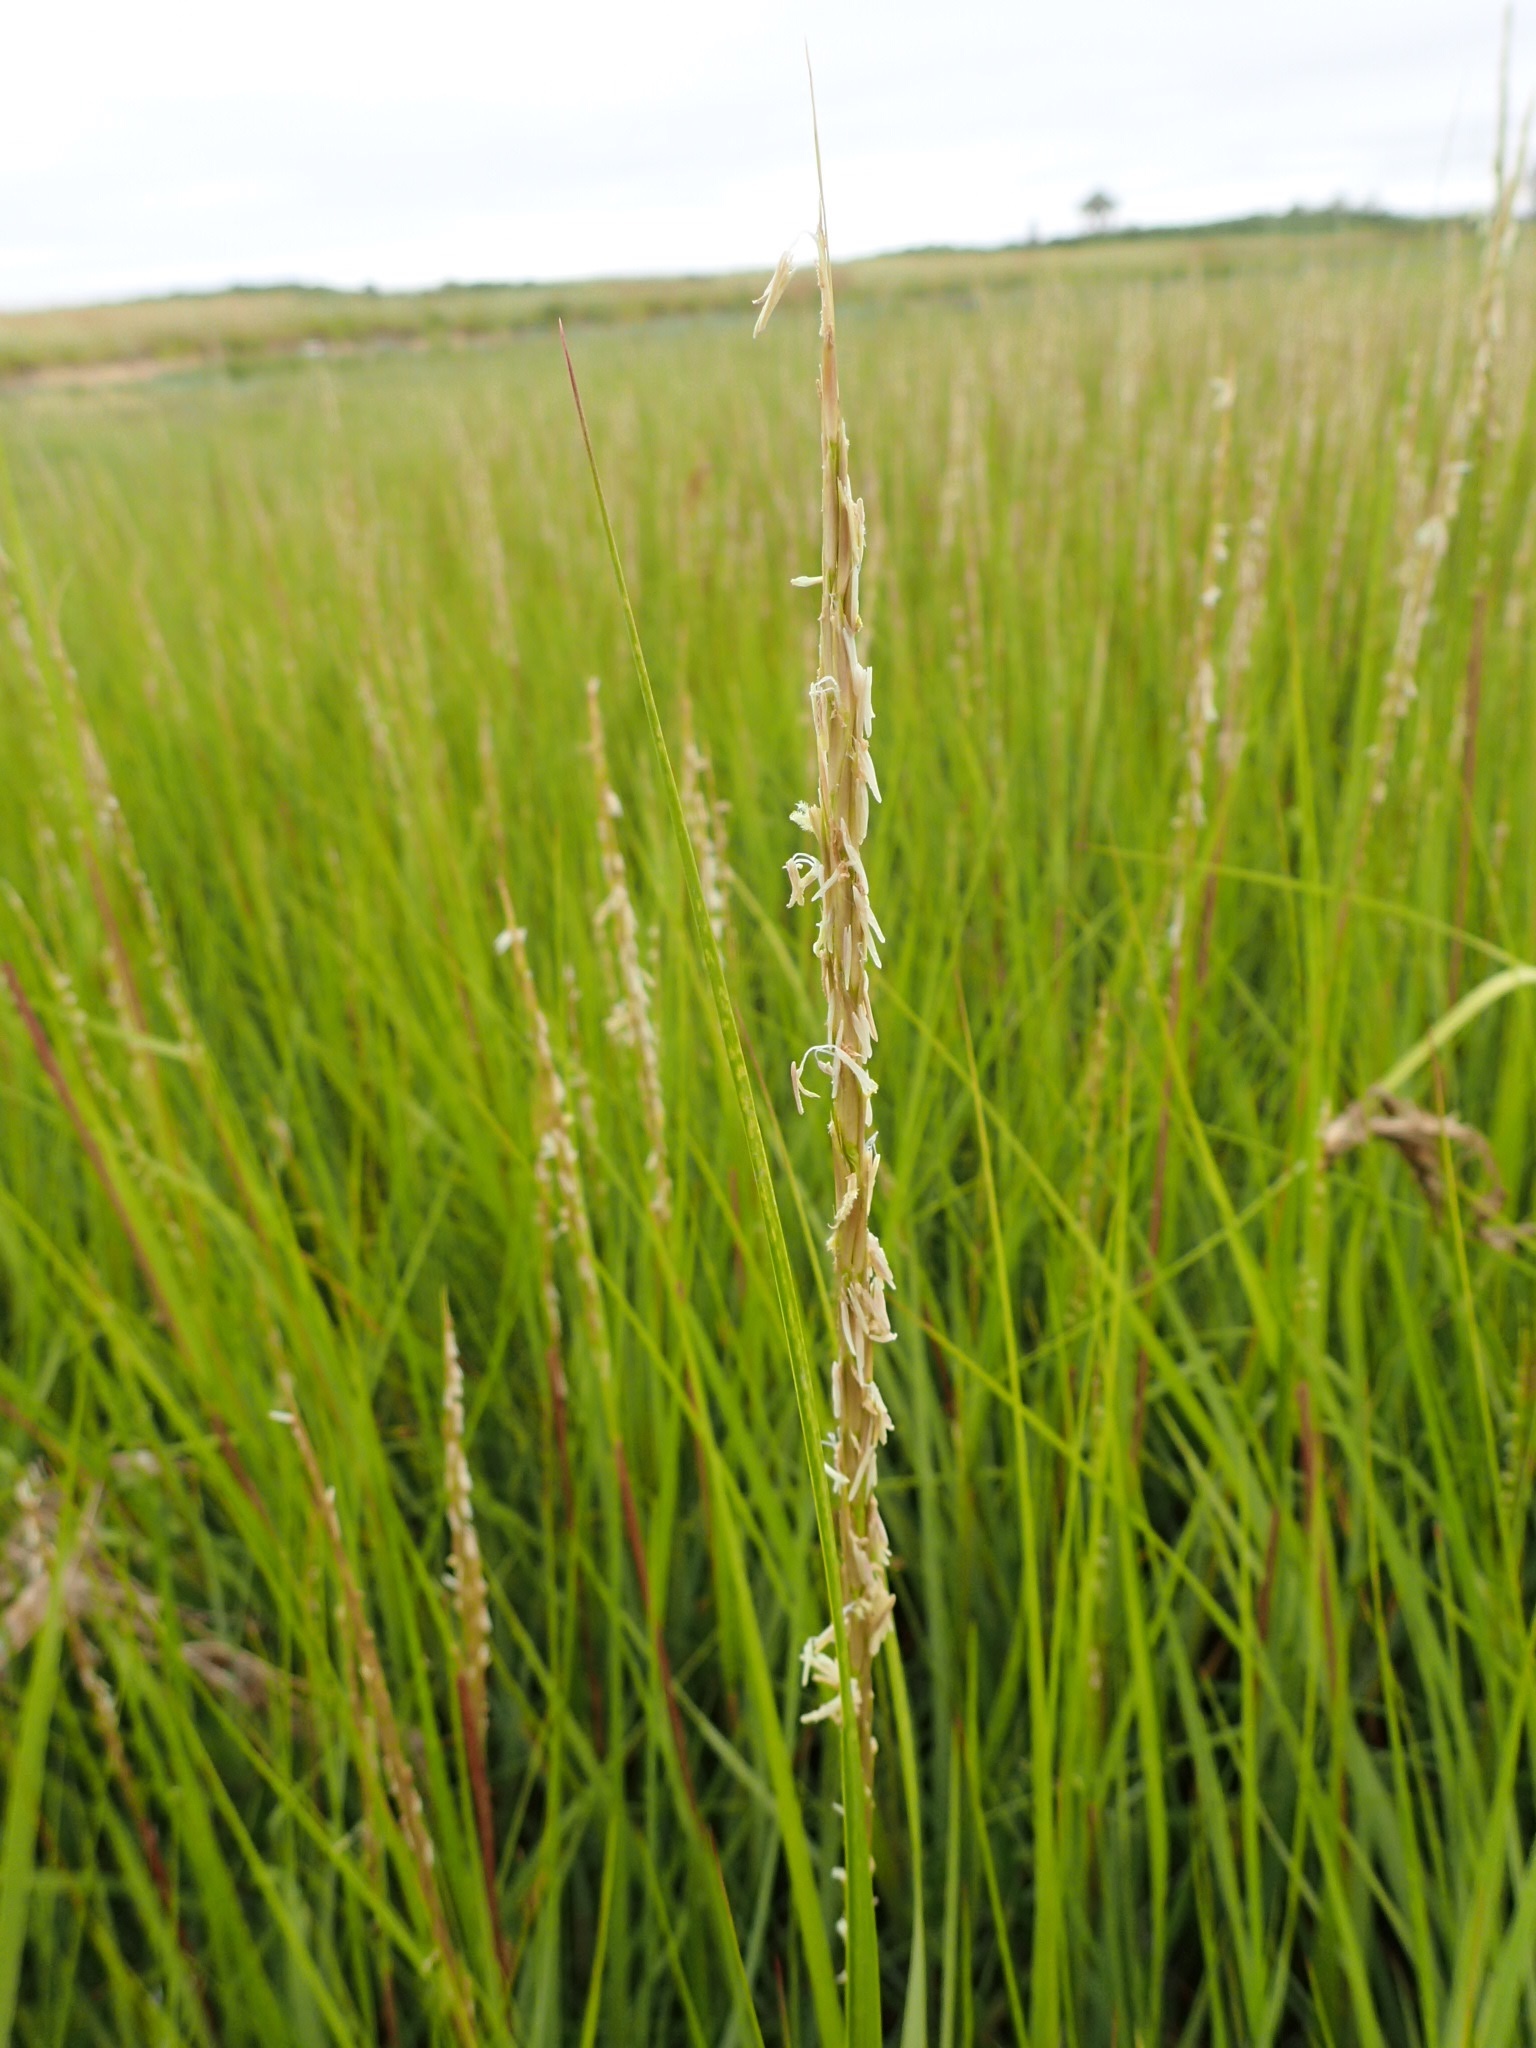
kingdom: Plantae
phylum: Tracheophyta
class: Liliopsida
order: Poales
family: Poaceae
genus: Sporobolus
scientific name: Sporobolus alterniflorus
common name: Atlantic cordgrass
